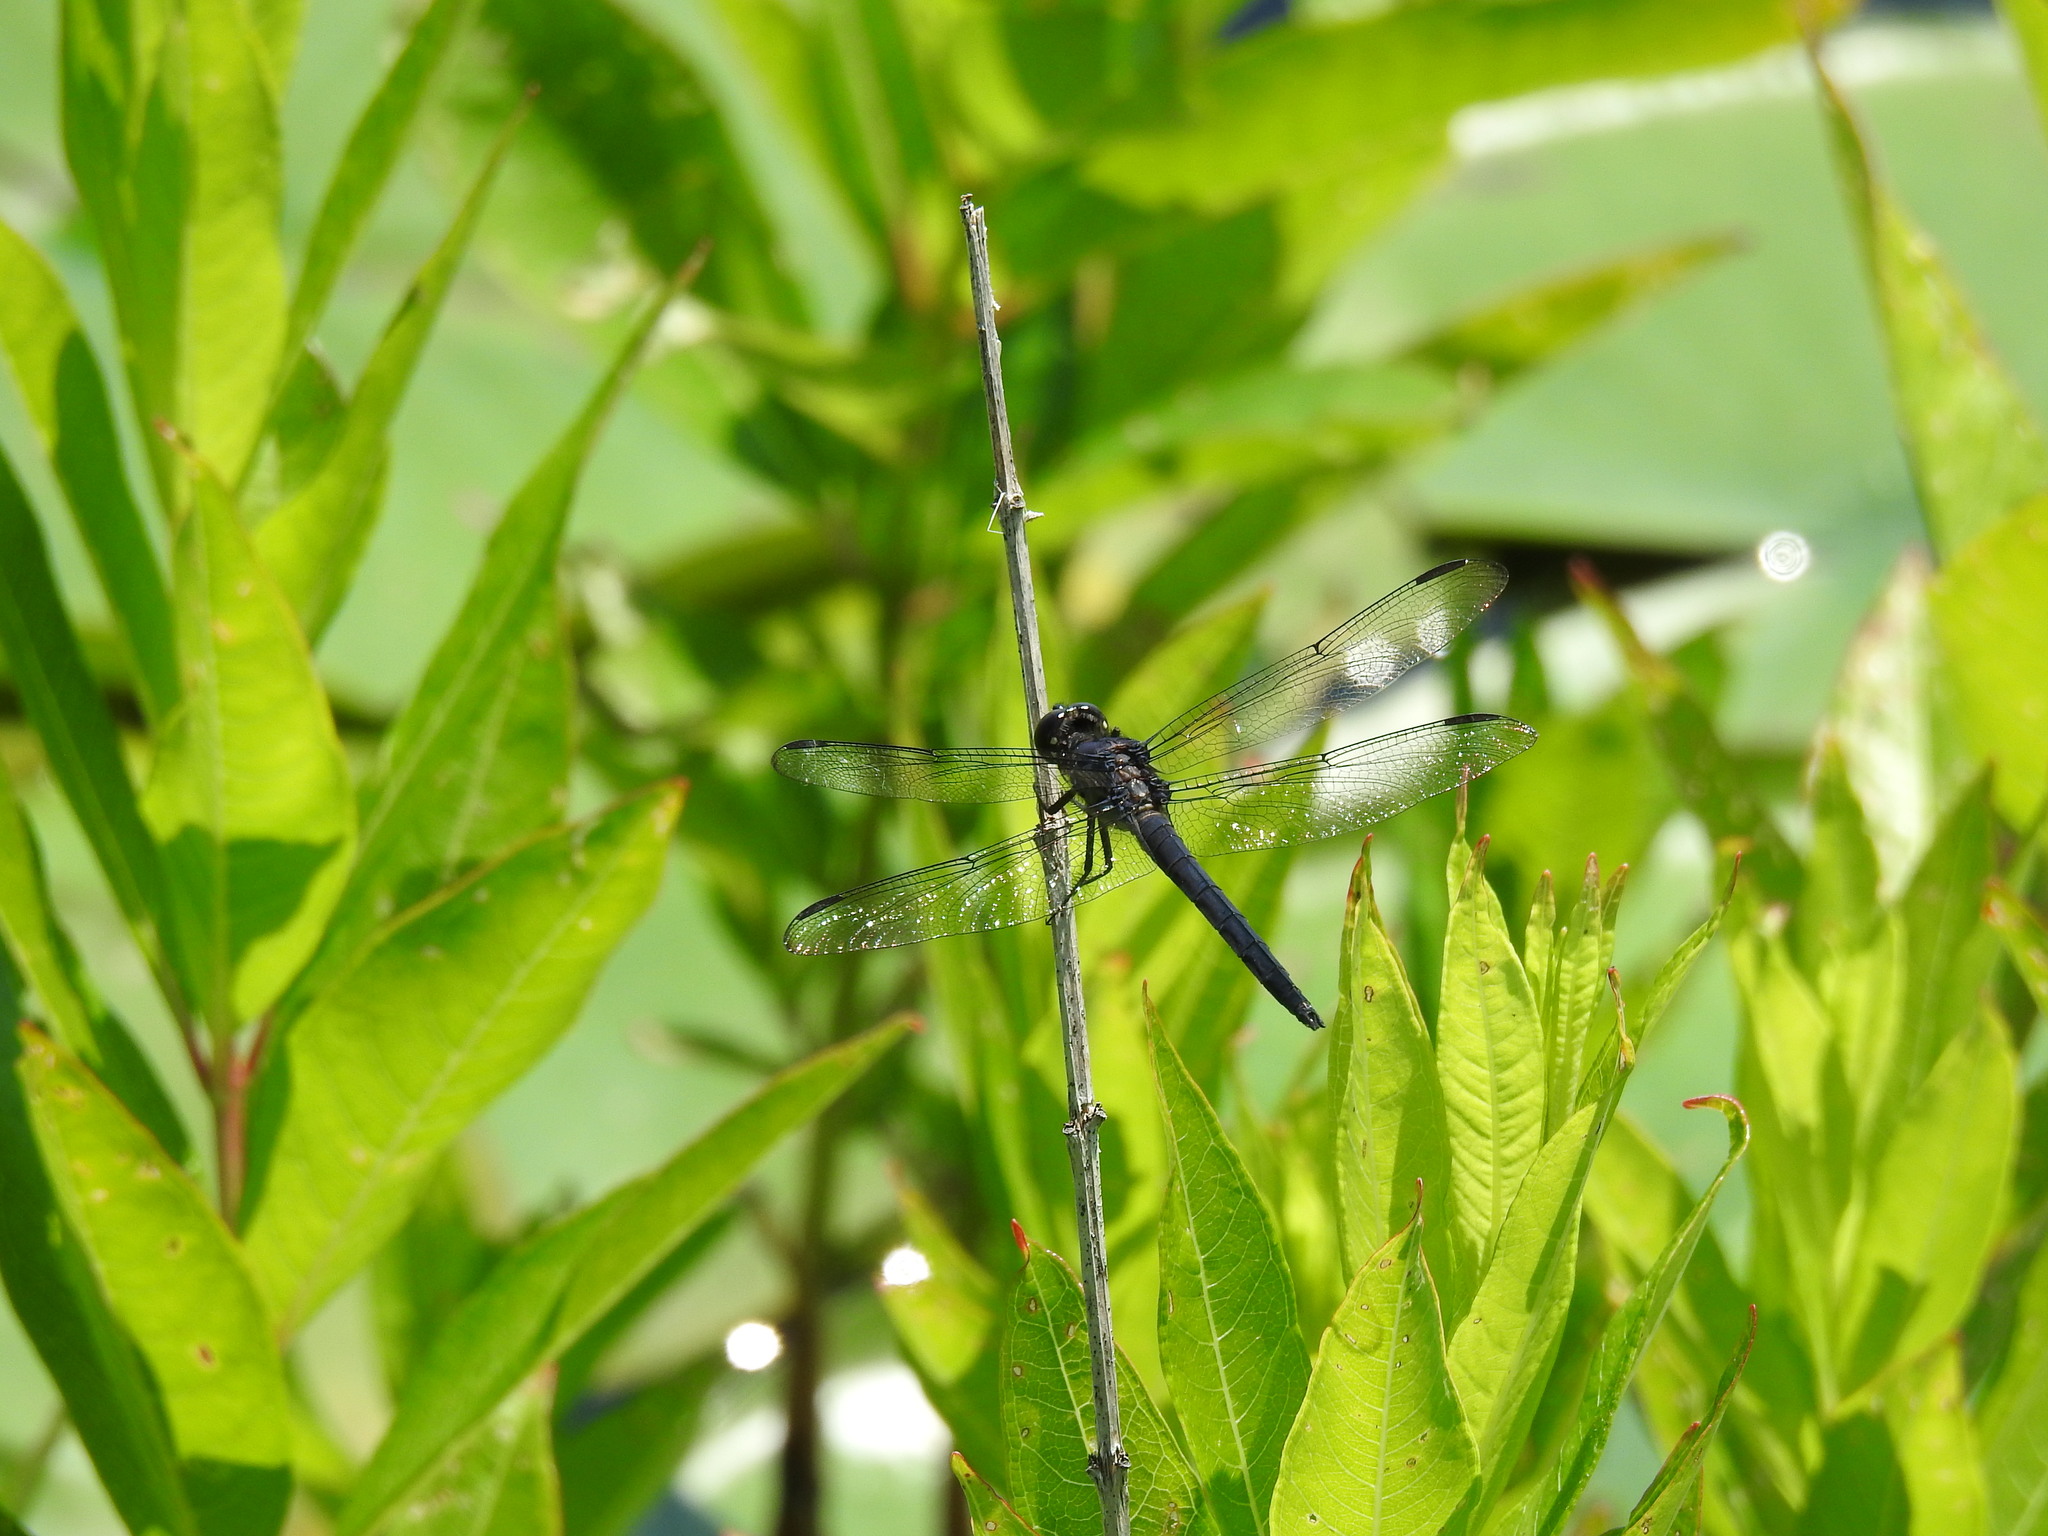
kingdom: Animalia
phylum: Arthropoda
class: Insecta
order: Odonata
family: Libellulidae
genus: Libellula
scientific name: Libellula incesta
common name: Slaty skimmer
